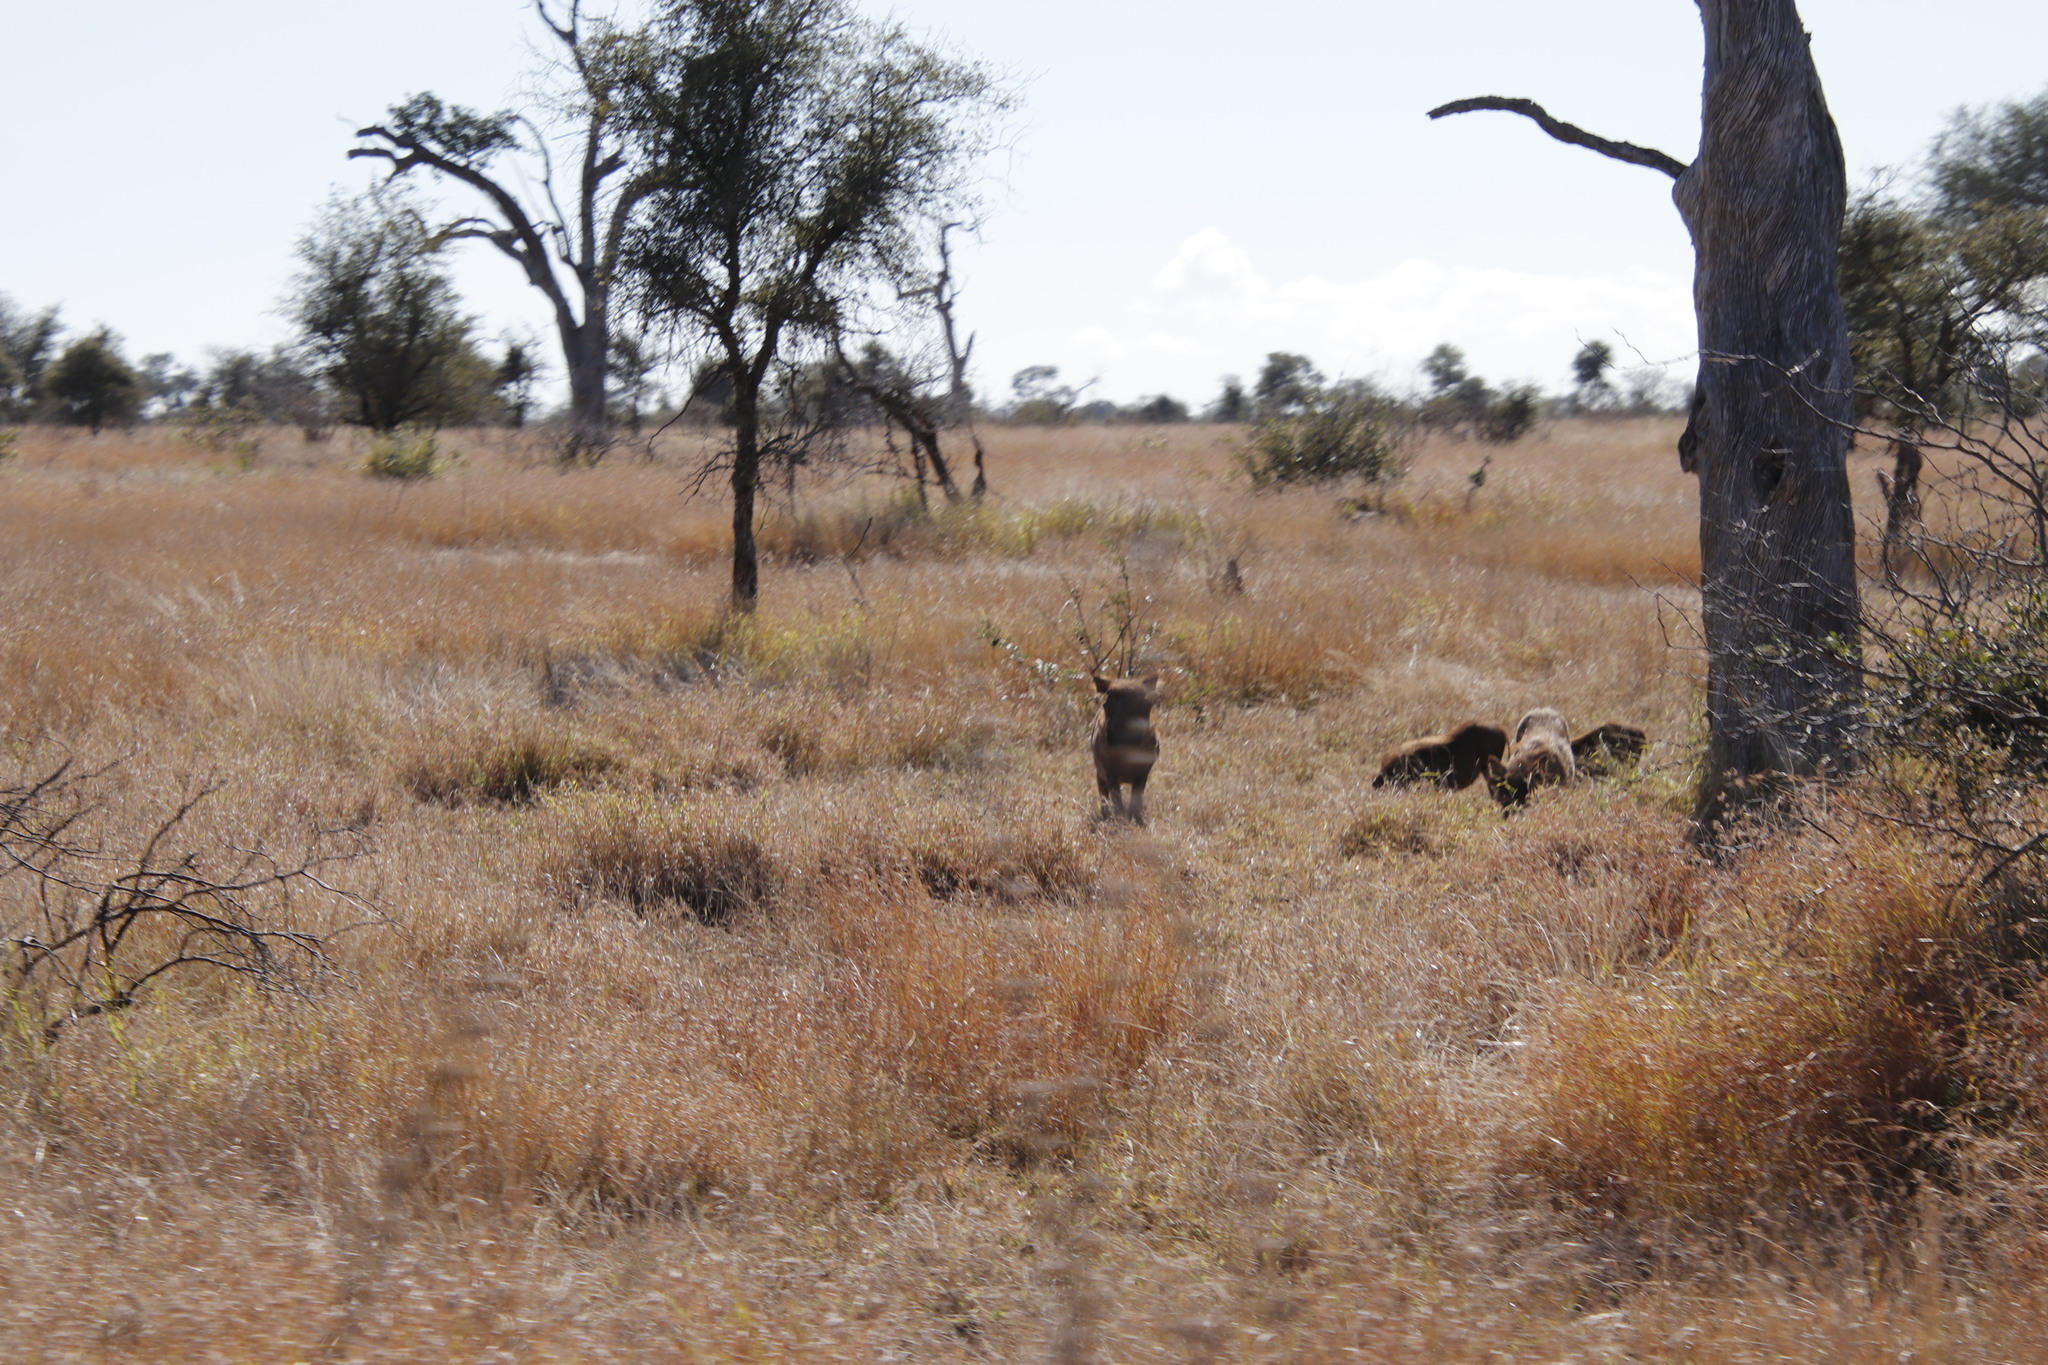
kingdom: Animalia
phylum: Chordata
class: Mammalia
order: Perissodactyla
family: Equidae
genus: Equus
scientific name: Equus quagga
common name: Plains zebra
